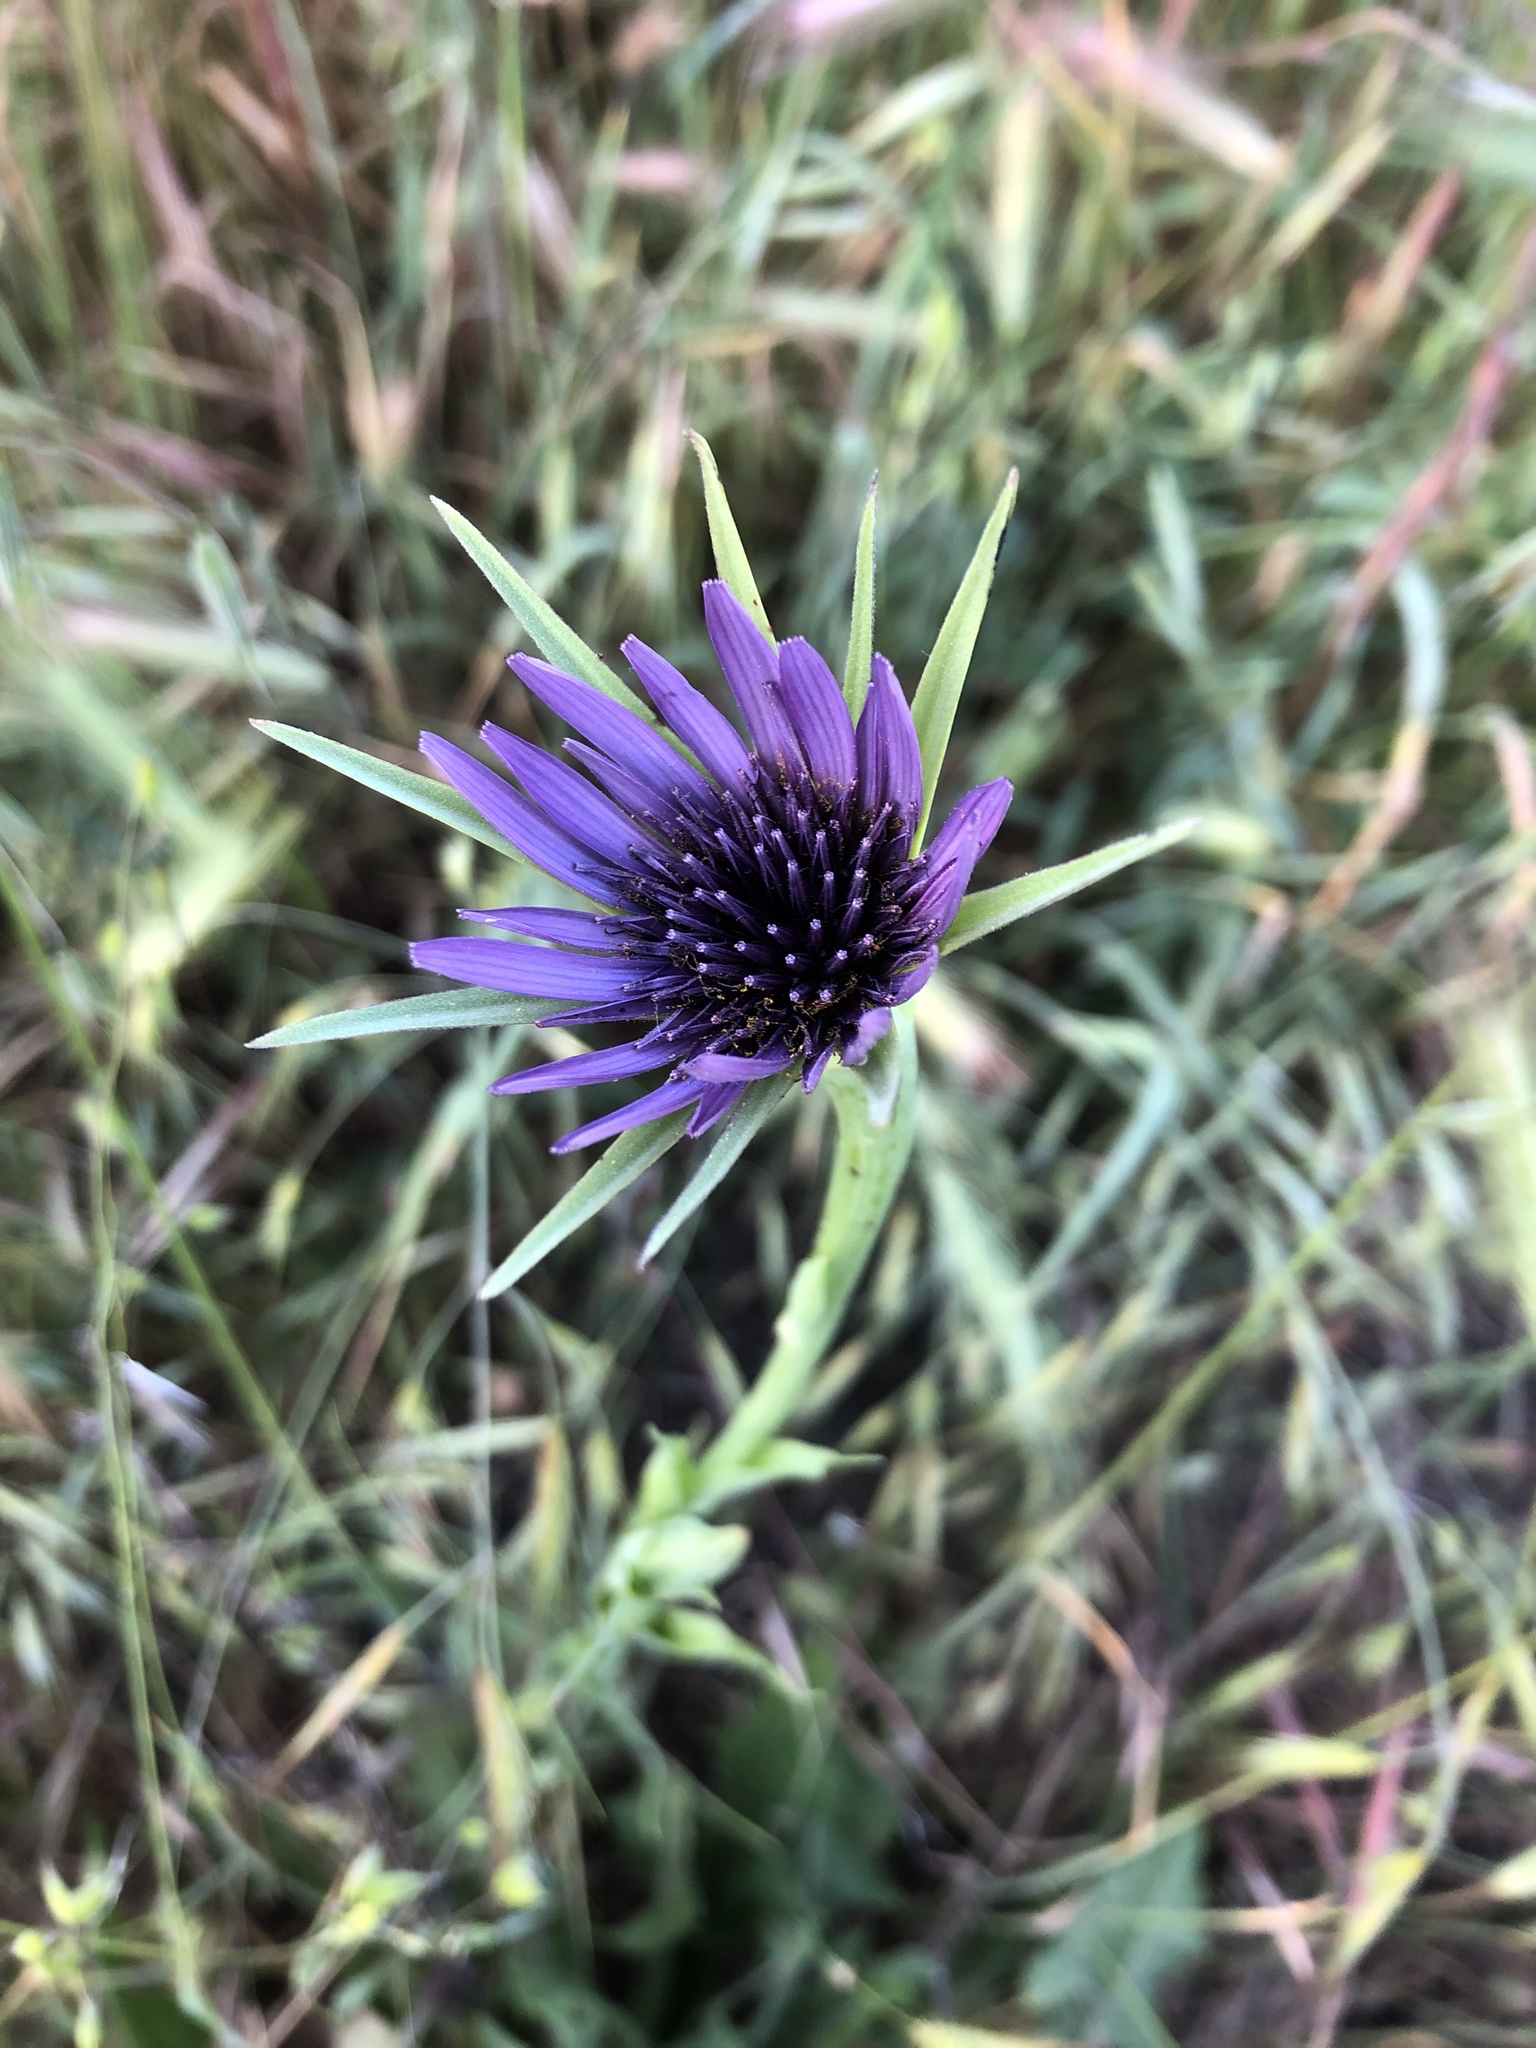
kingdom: Plantae
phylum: Tracheophyta
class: Magnoliopsida
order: Asterales
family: Asteraceae
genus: Tragopogon
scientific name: Tragopogon porrifolius
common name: Salsify
